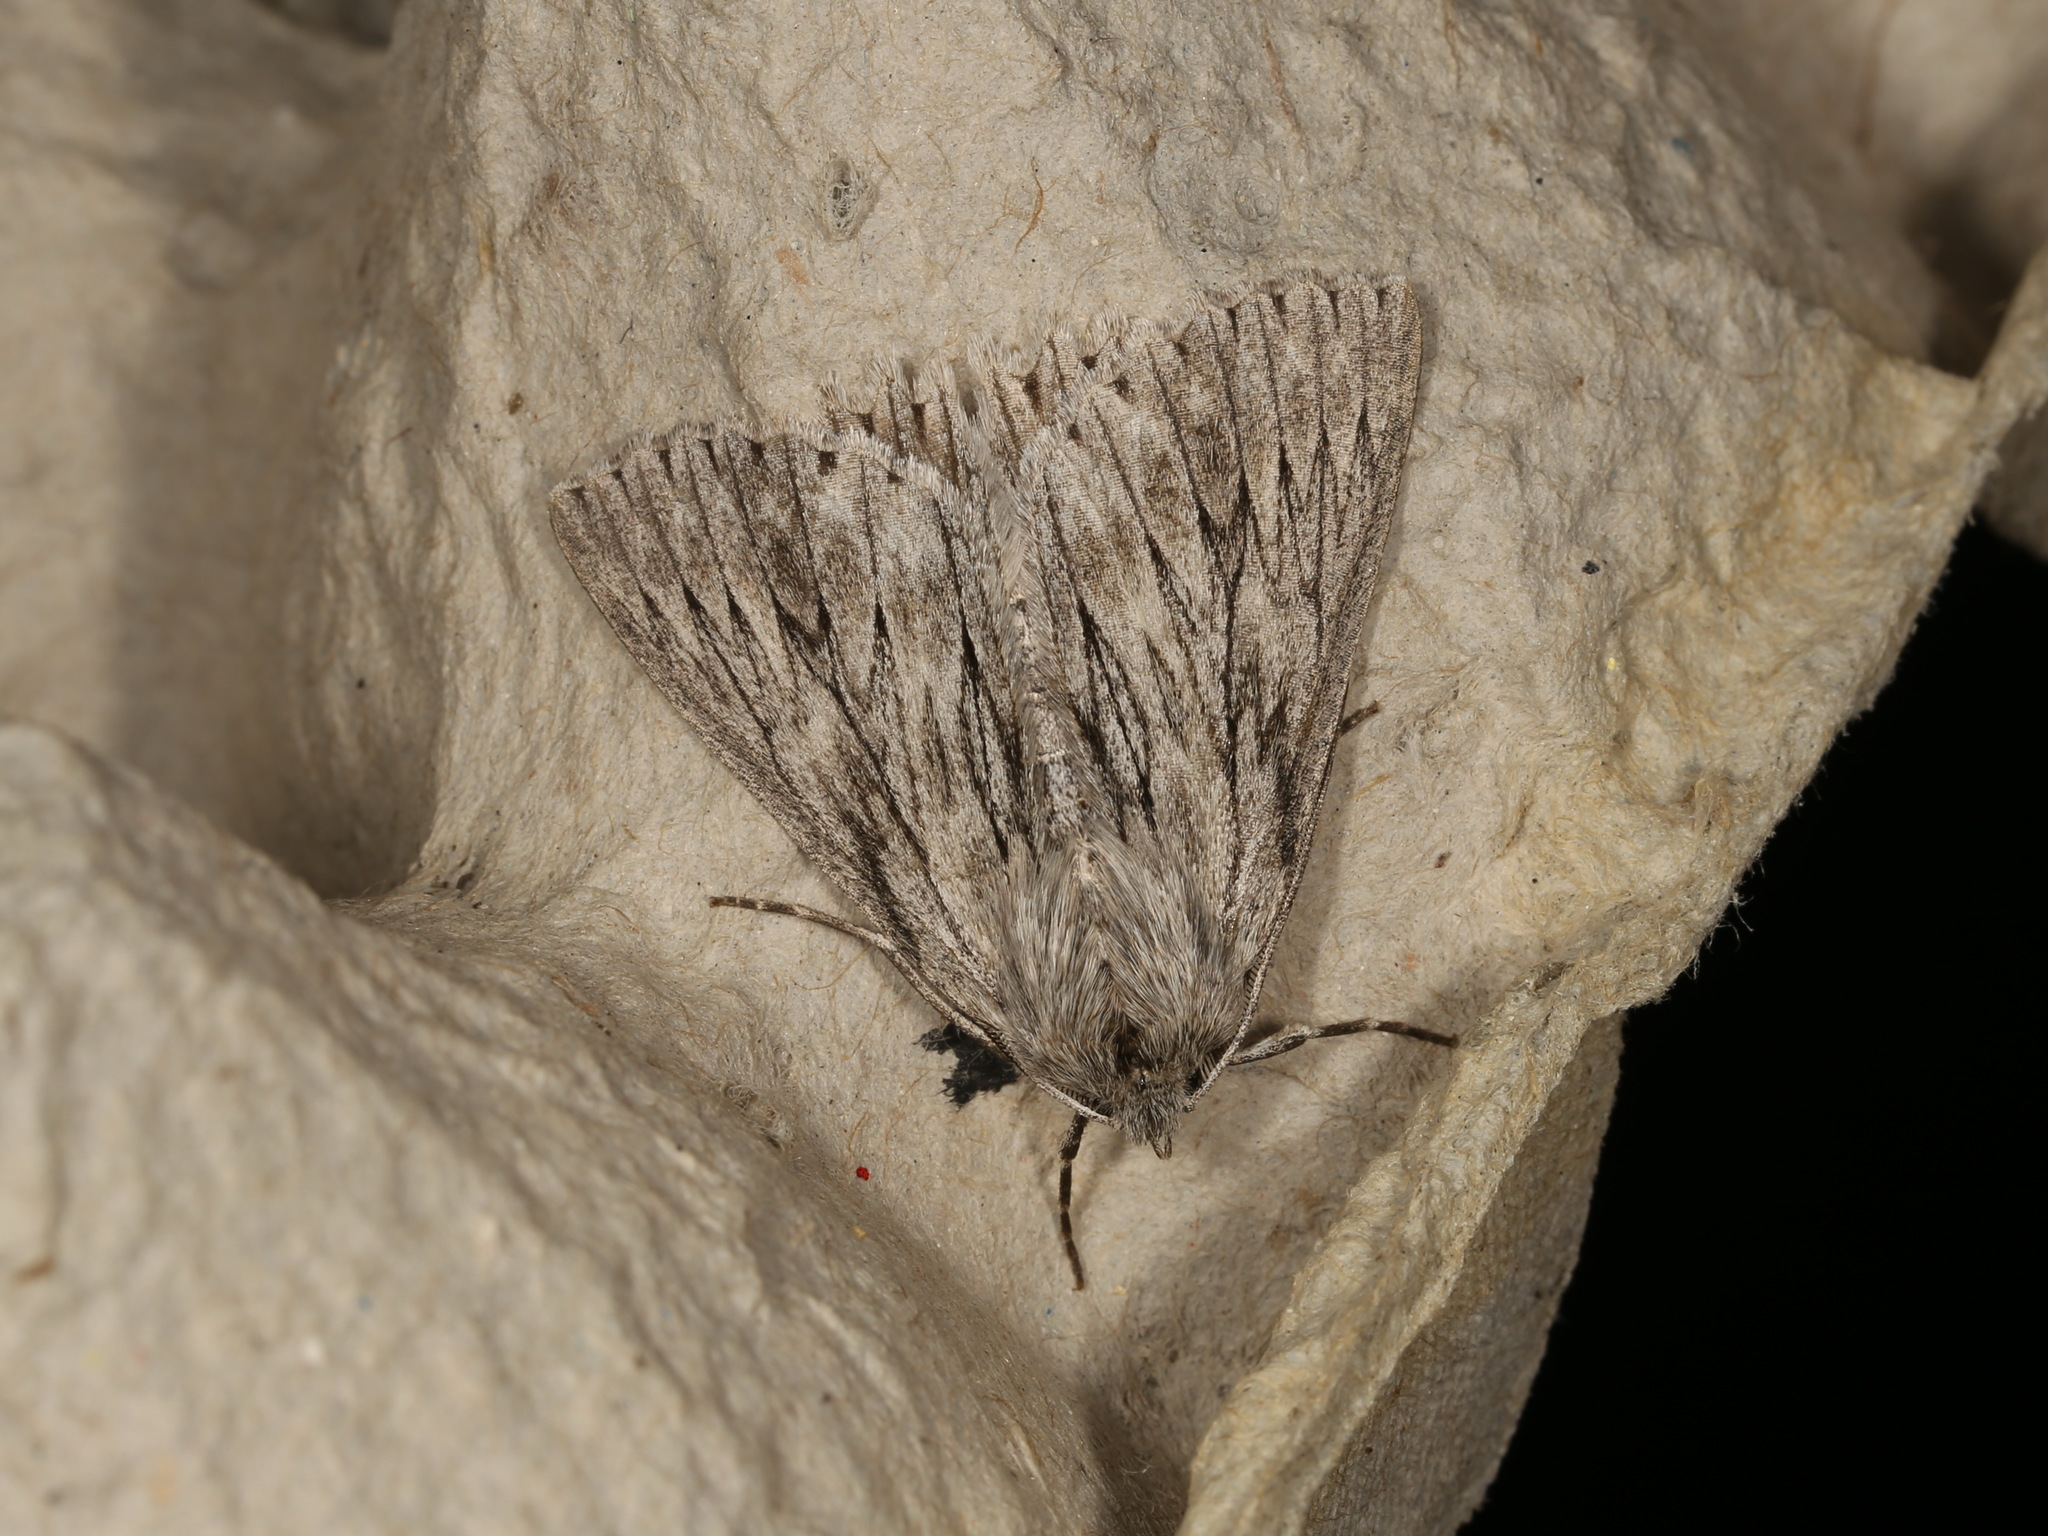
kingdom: Animalia
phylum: Arthropoda
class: Insecta
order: Lepidoptera
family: Geometridae
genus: Cyneoterpna
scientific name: Cyneoterpna wilsoni
